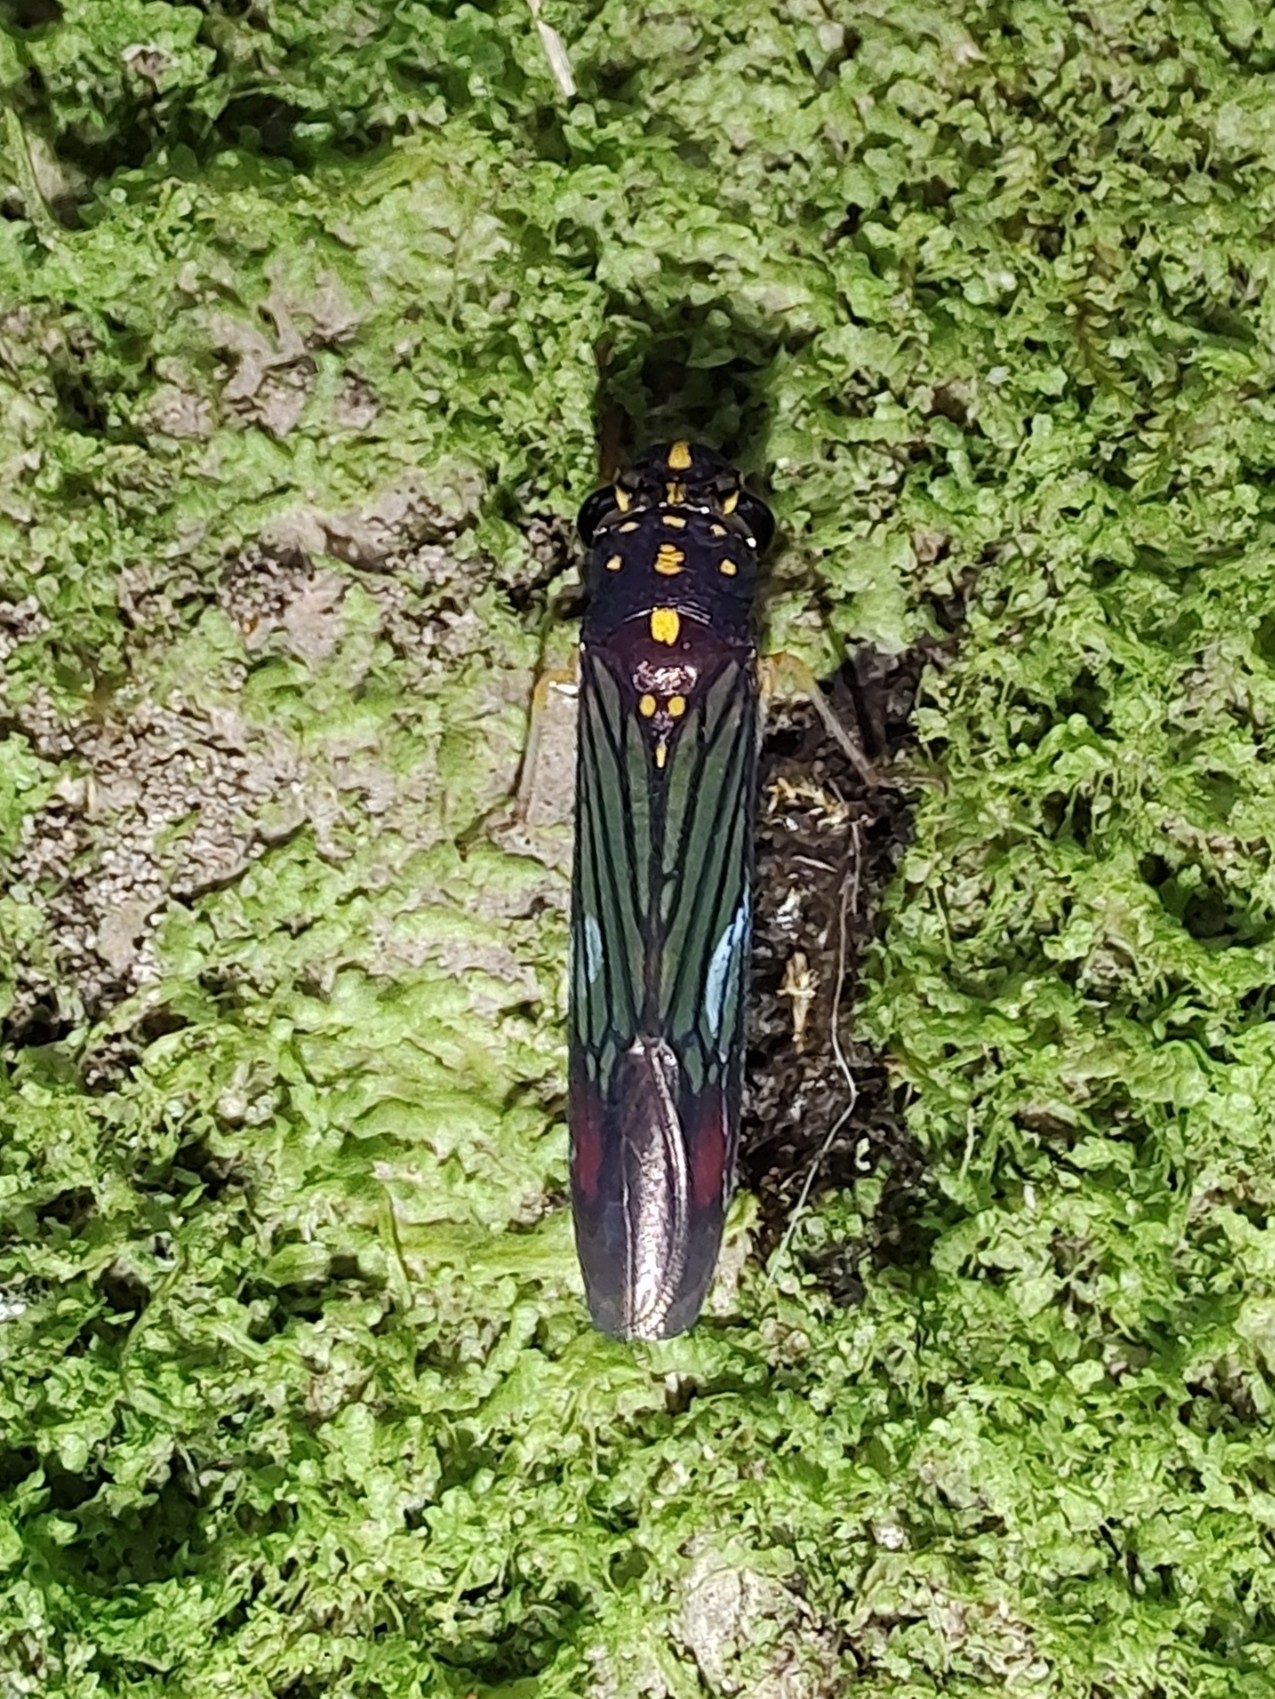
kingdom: Animalia
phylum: Arthropoda
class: Insecta
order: Hemiptera
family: Cicadellidae
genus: Egidemia
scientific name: Egidemia speculifera
